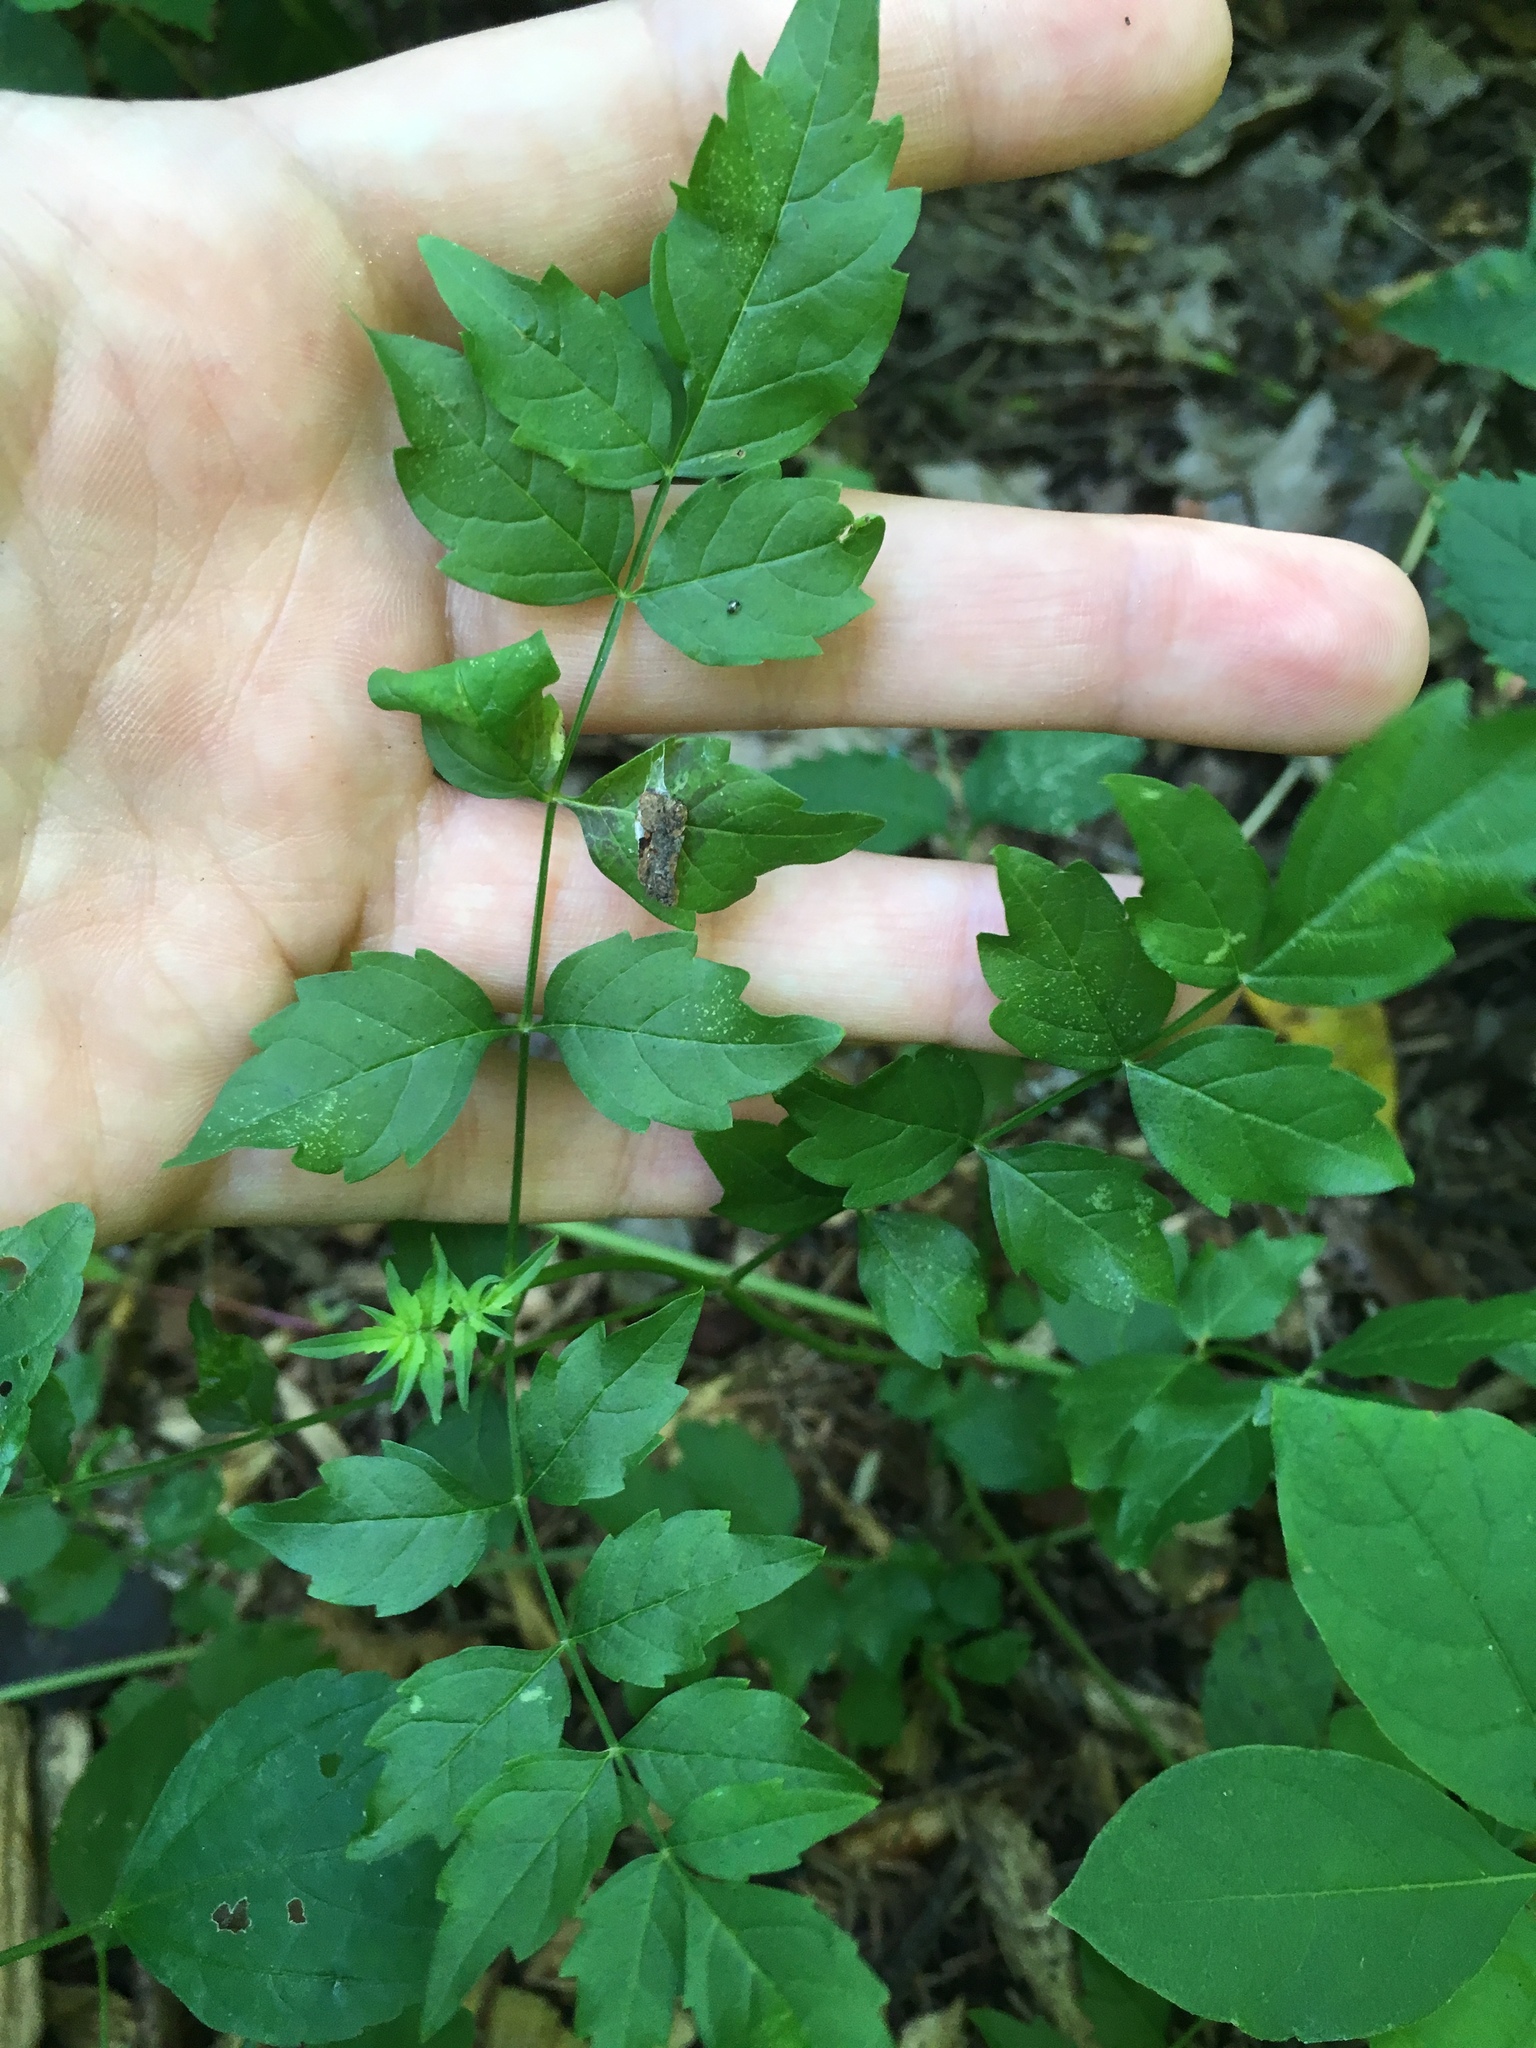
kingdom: Plantae
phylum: Tracheophyta
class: Magnoliopsida
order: Lamiales
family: Bignoniaceae
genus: Campsis
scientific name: Campsis radicans
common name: Trumpet-creeper
